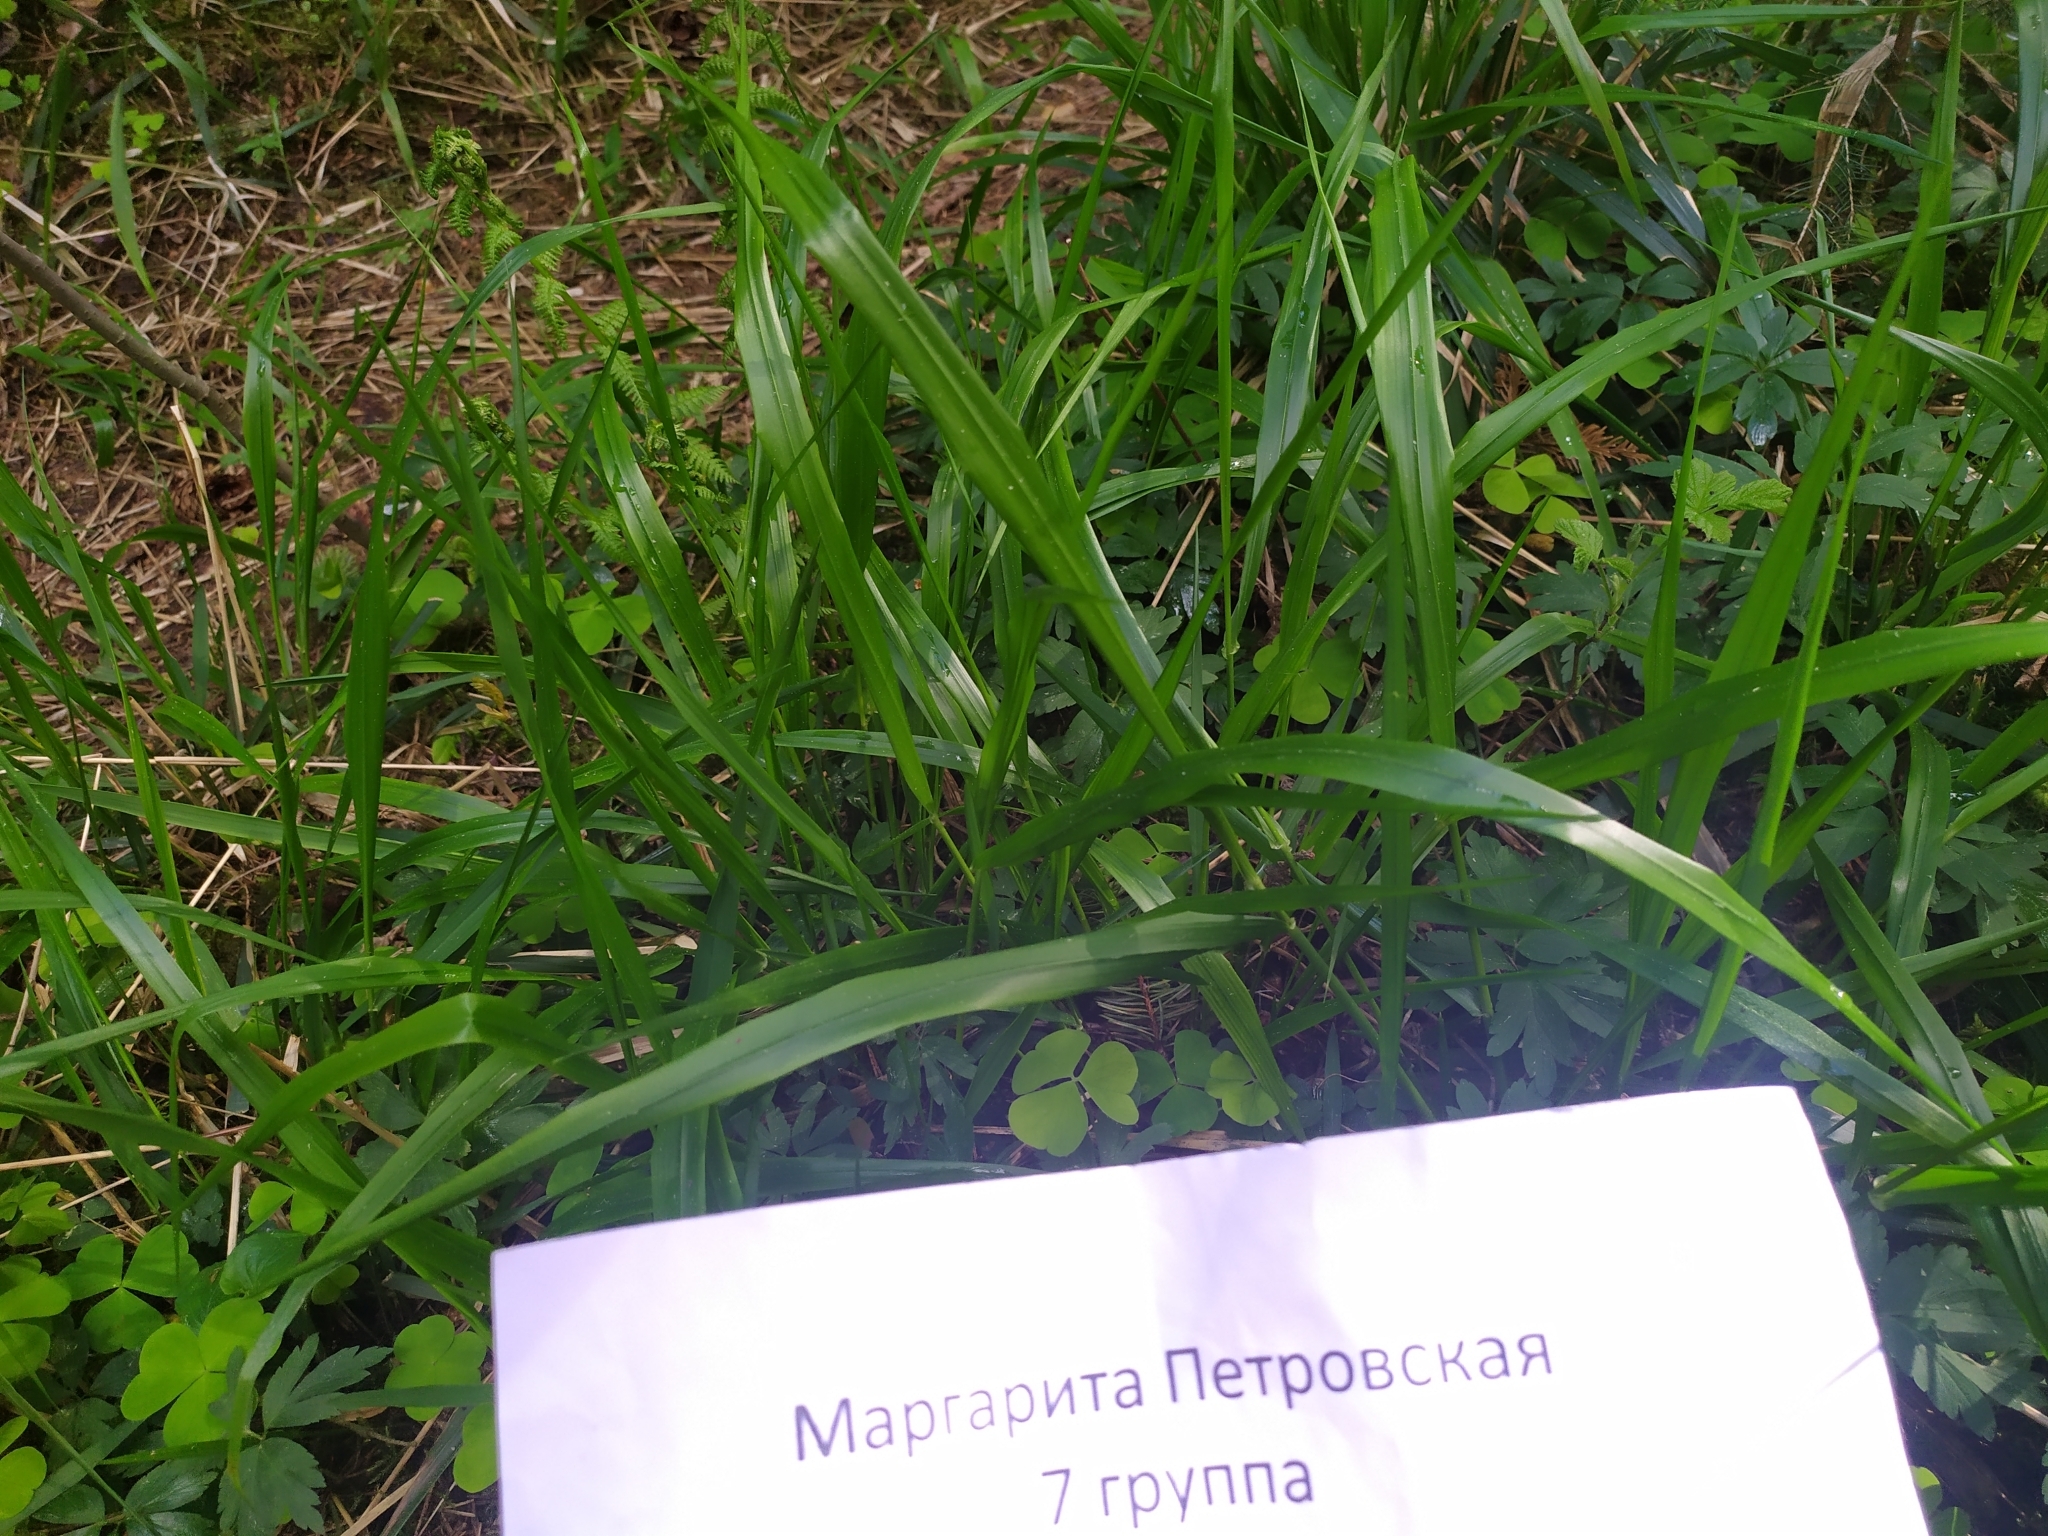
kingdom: Plantae
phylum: Tracheophyta
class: Liliopsida
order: Poales
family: Poaceae
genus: Calamagrostis
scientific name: Calamagrostis arundinacea
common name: Metskastik
